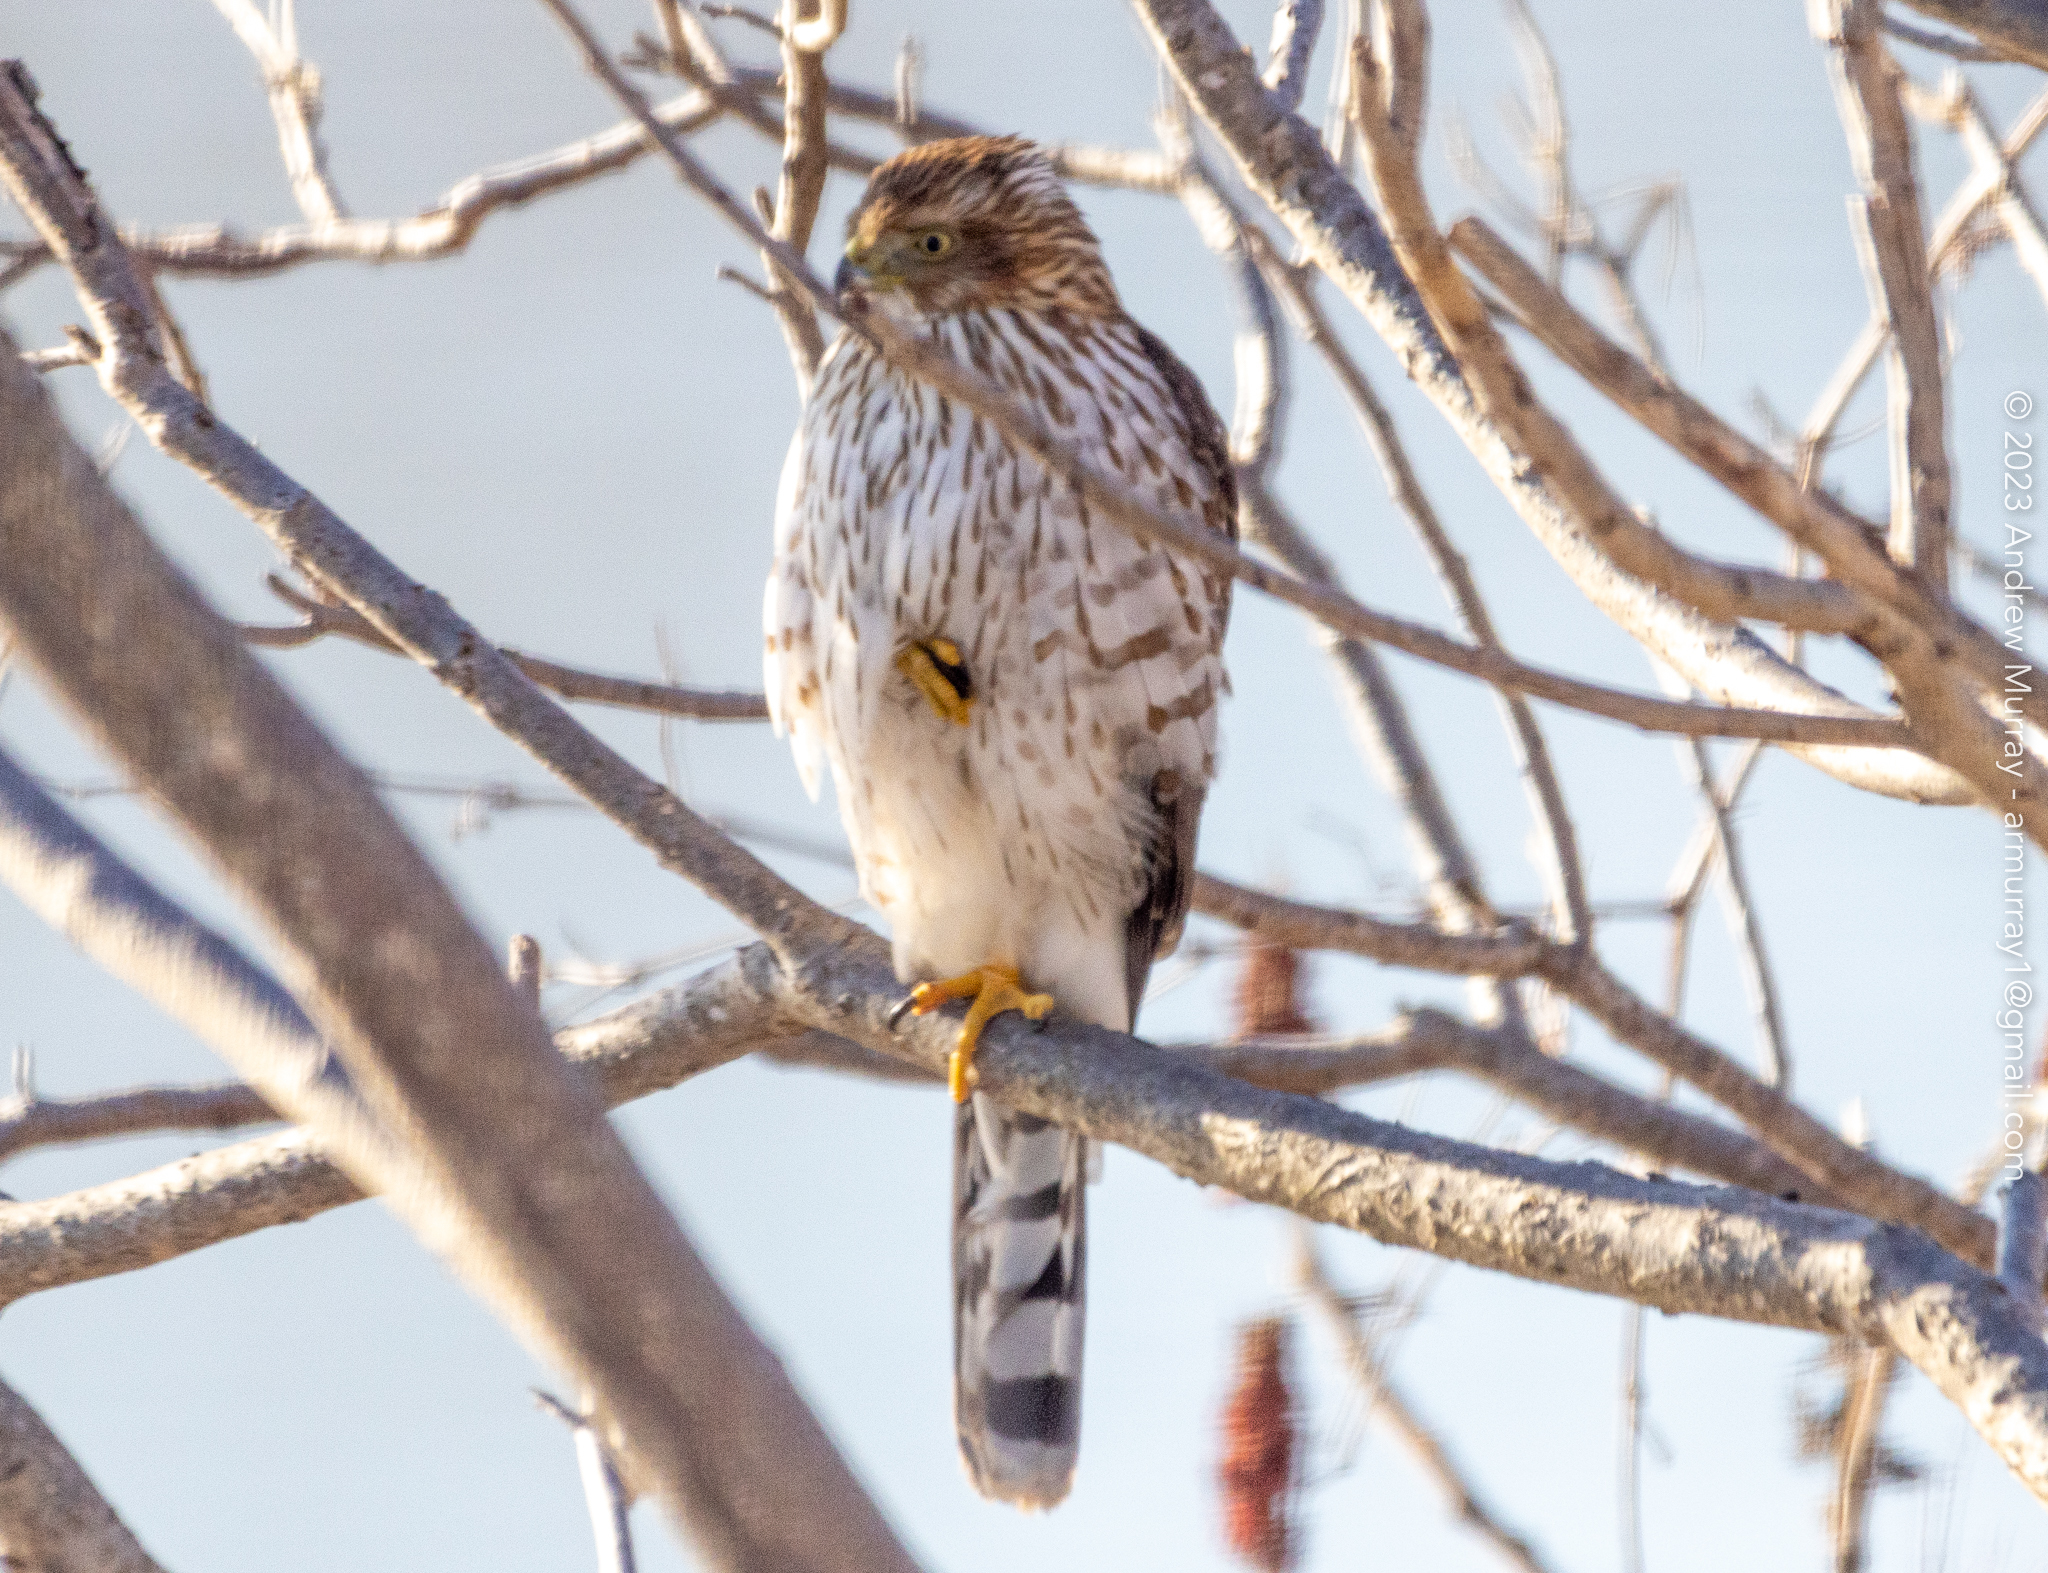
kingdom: Animalia
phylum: Chordata
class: Aves
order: Accipitriformes
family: Accipitridae
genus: Accipiter
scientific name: Accipiter cooperii
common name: Cooper's hawk
